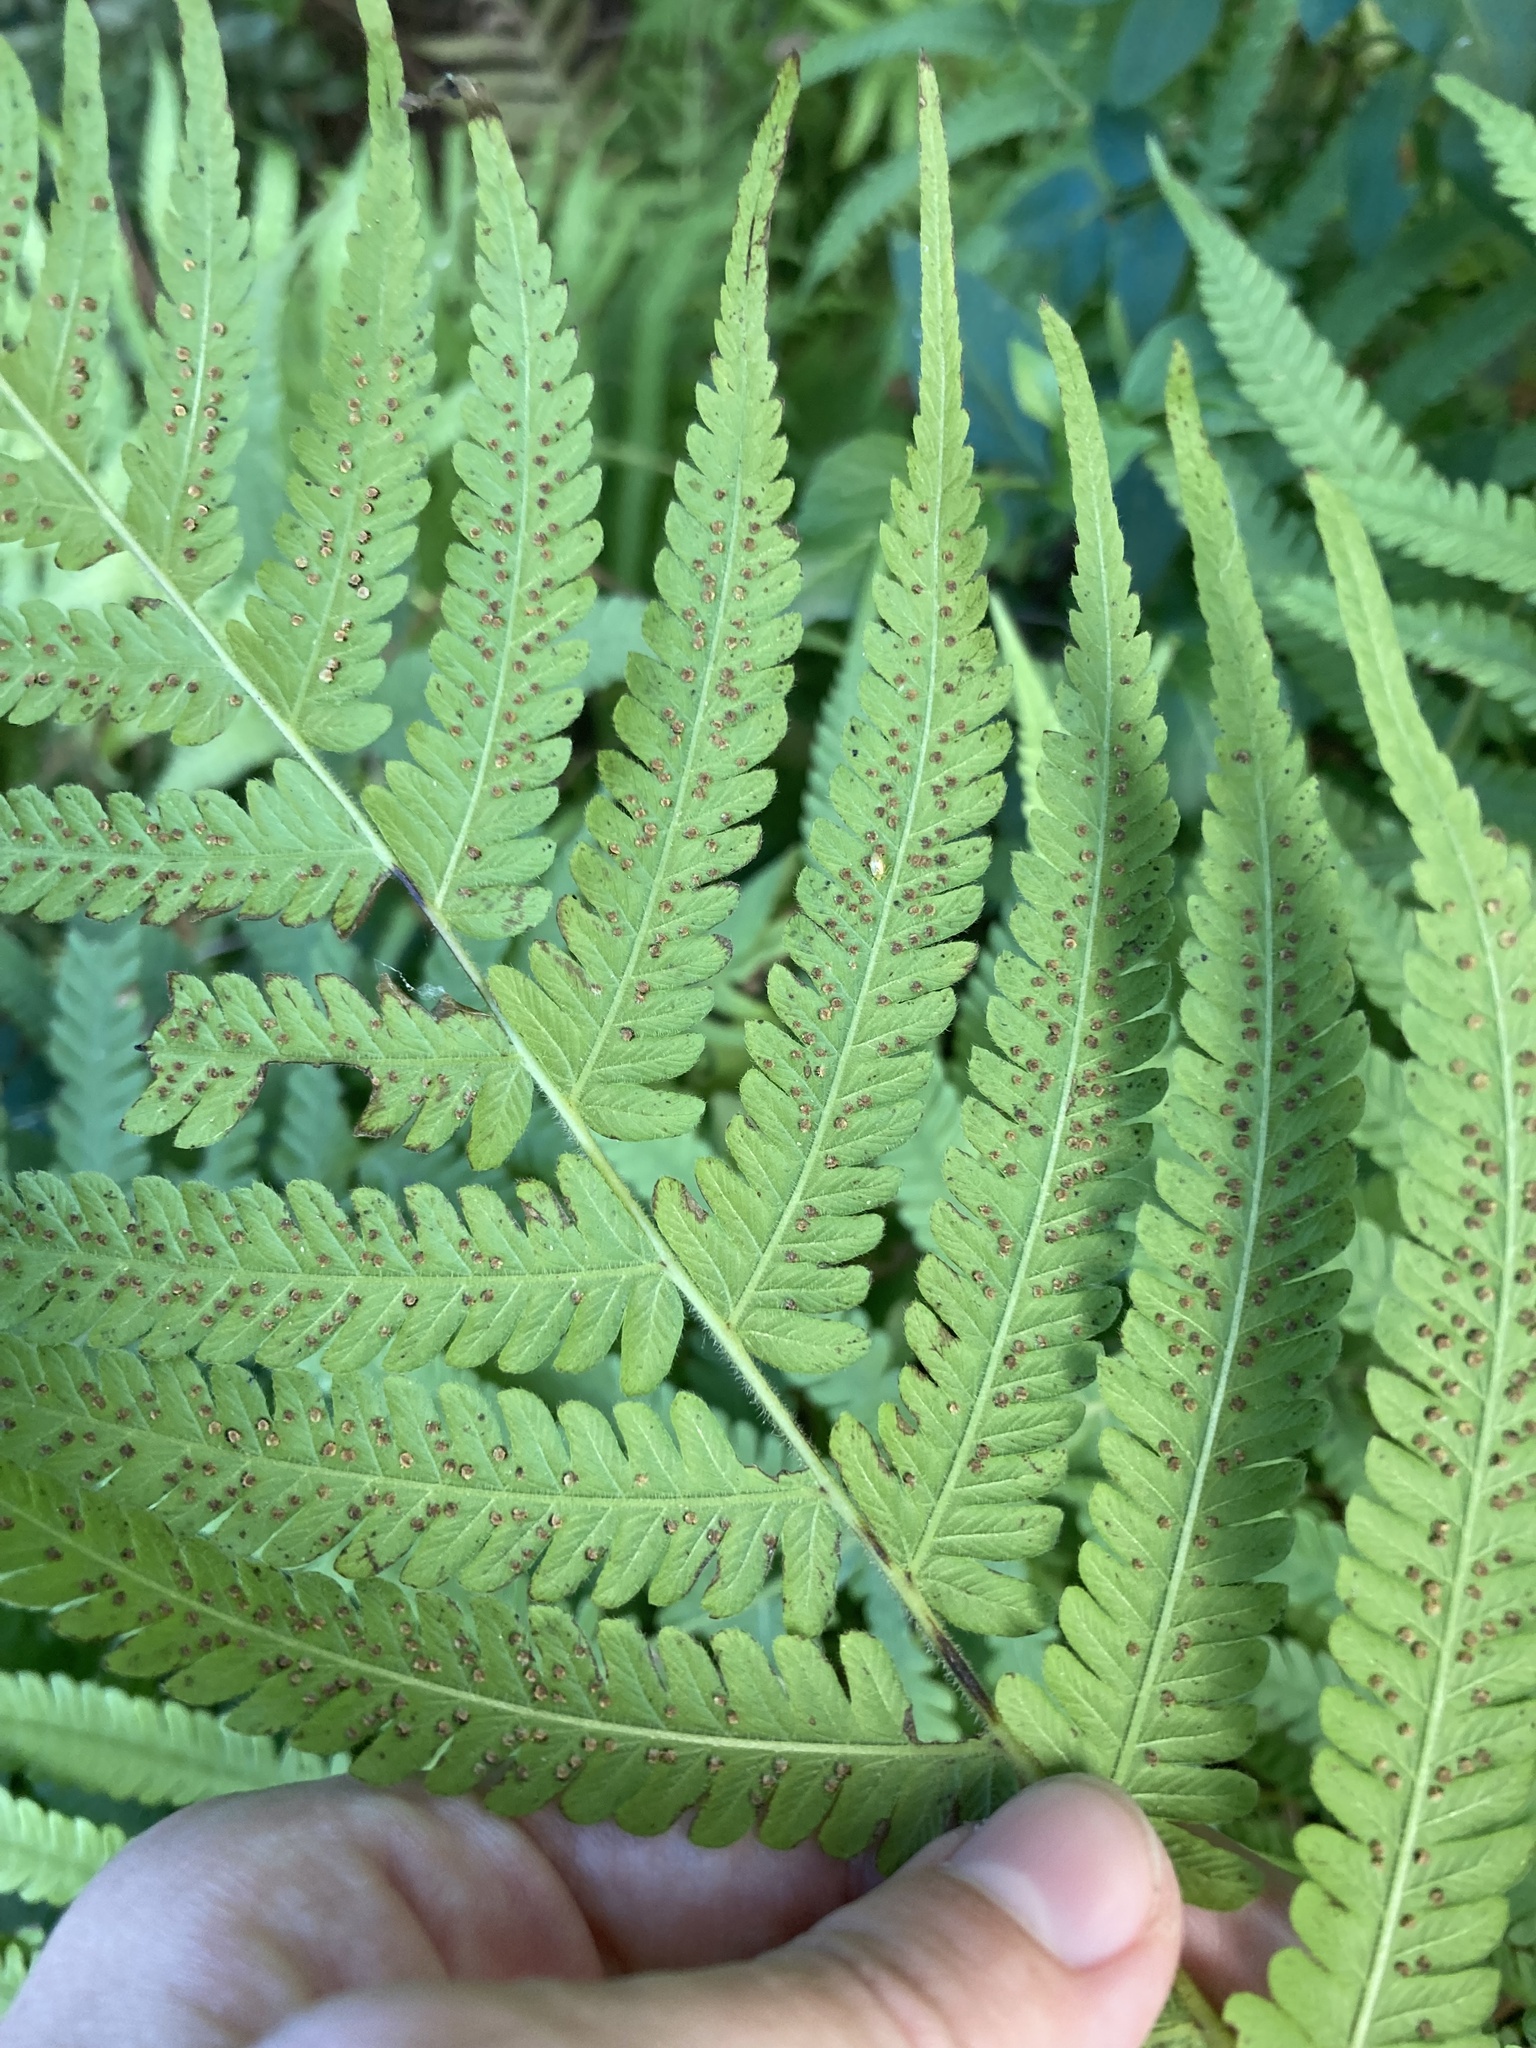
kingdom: Plantae
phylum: Tracheophyta
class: Polypodiopsida
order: Polypodiales
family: Thelypteridaceae
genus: Pelazoneuron
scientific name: Pelazoneuron kunthii
